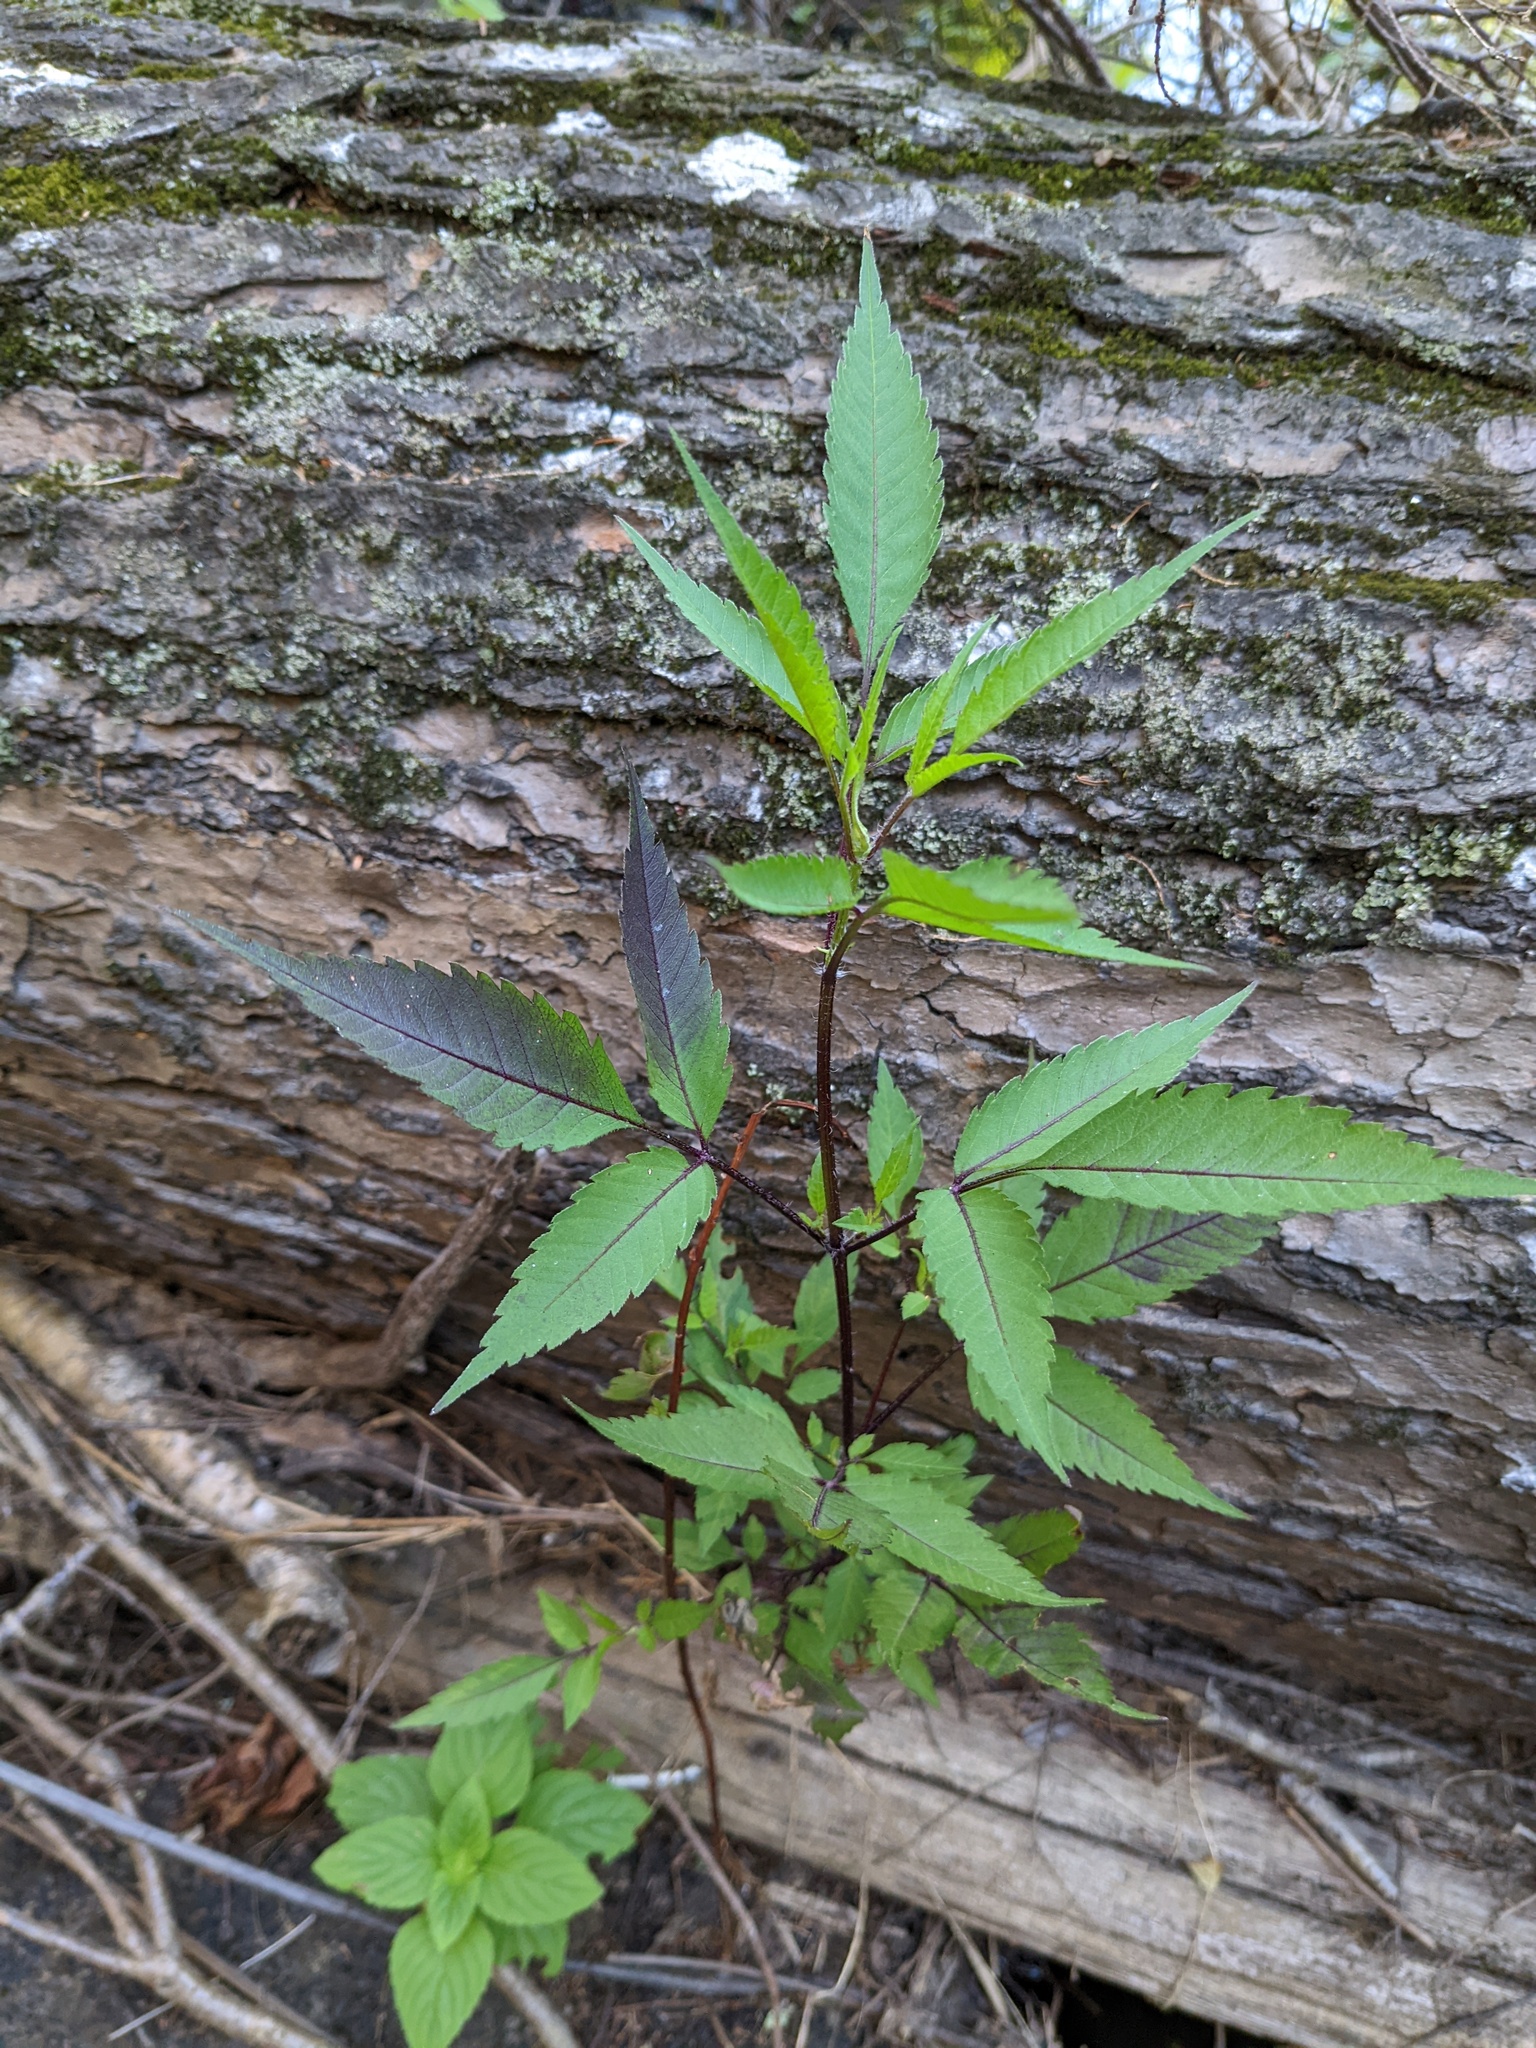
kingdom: Plantae
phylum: Tracheophyta
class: Magnoliopsida
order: Asterales
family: Asteraceae
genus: Bidens
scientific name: Bidens frondosa
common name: Beggarticks
